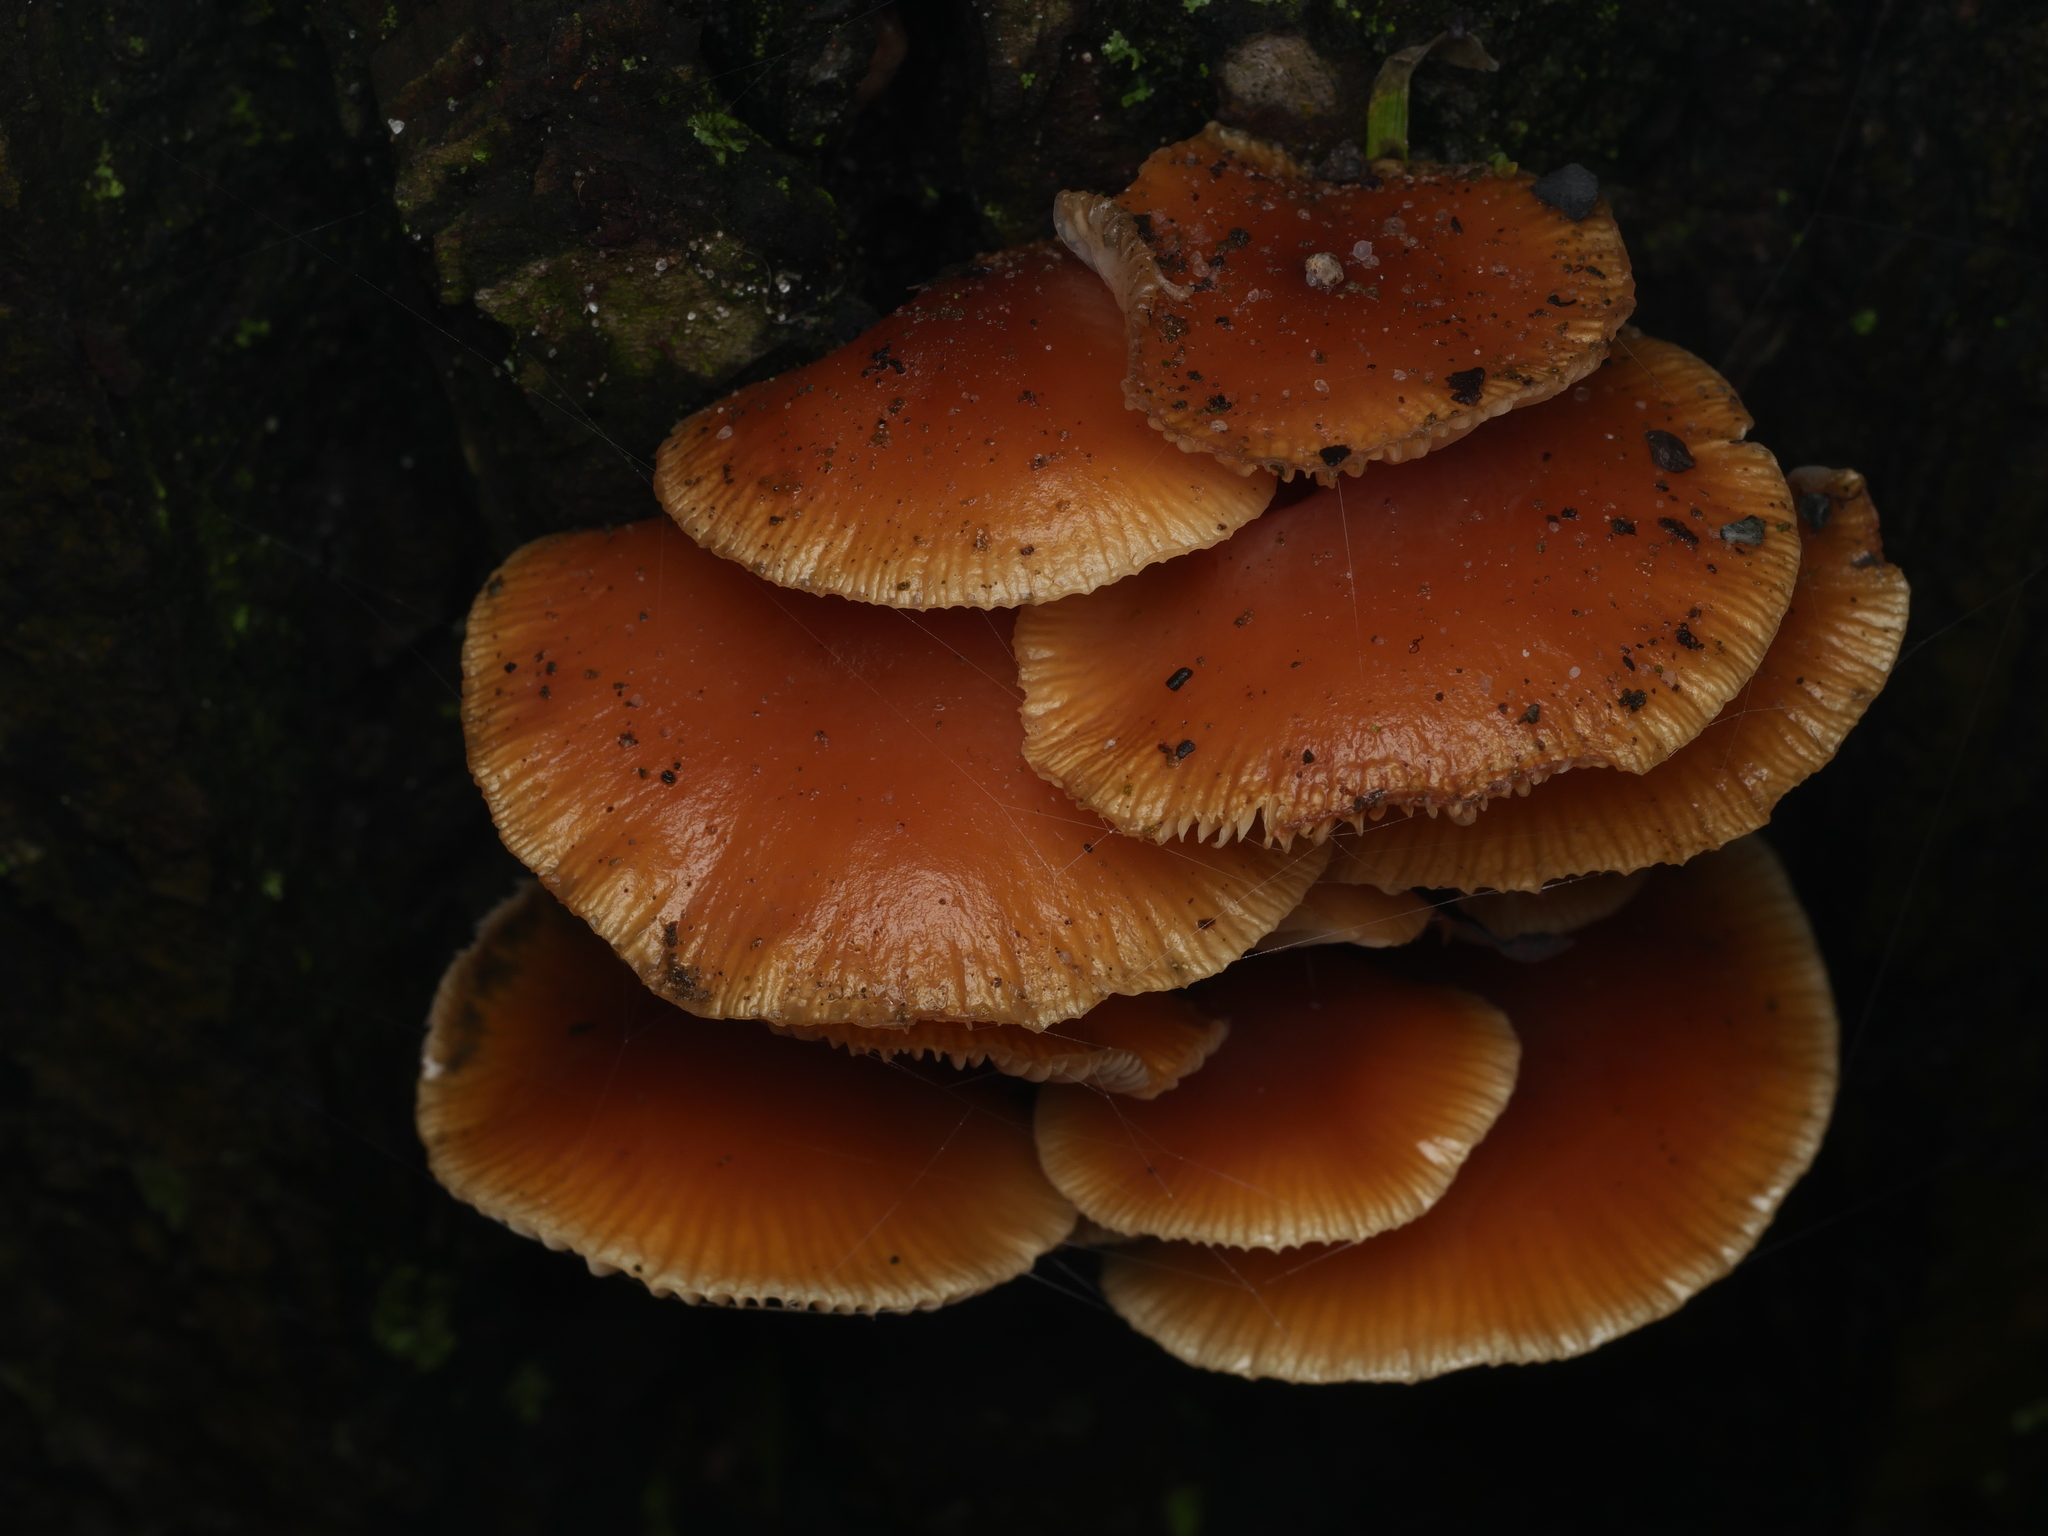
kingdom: Fungi
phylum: Basidiomycota
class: Agaricomycetes
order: Agaricales
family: Physalacriaceae
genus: Flammulina
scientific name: Flammulina
